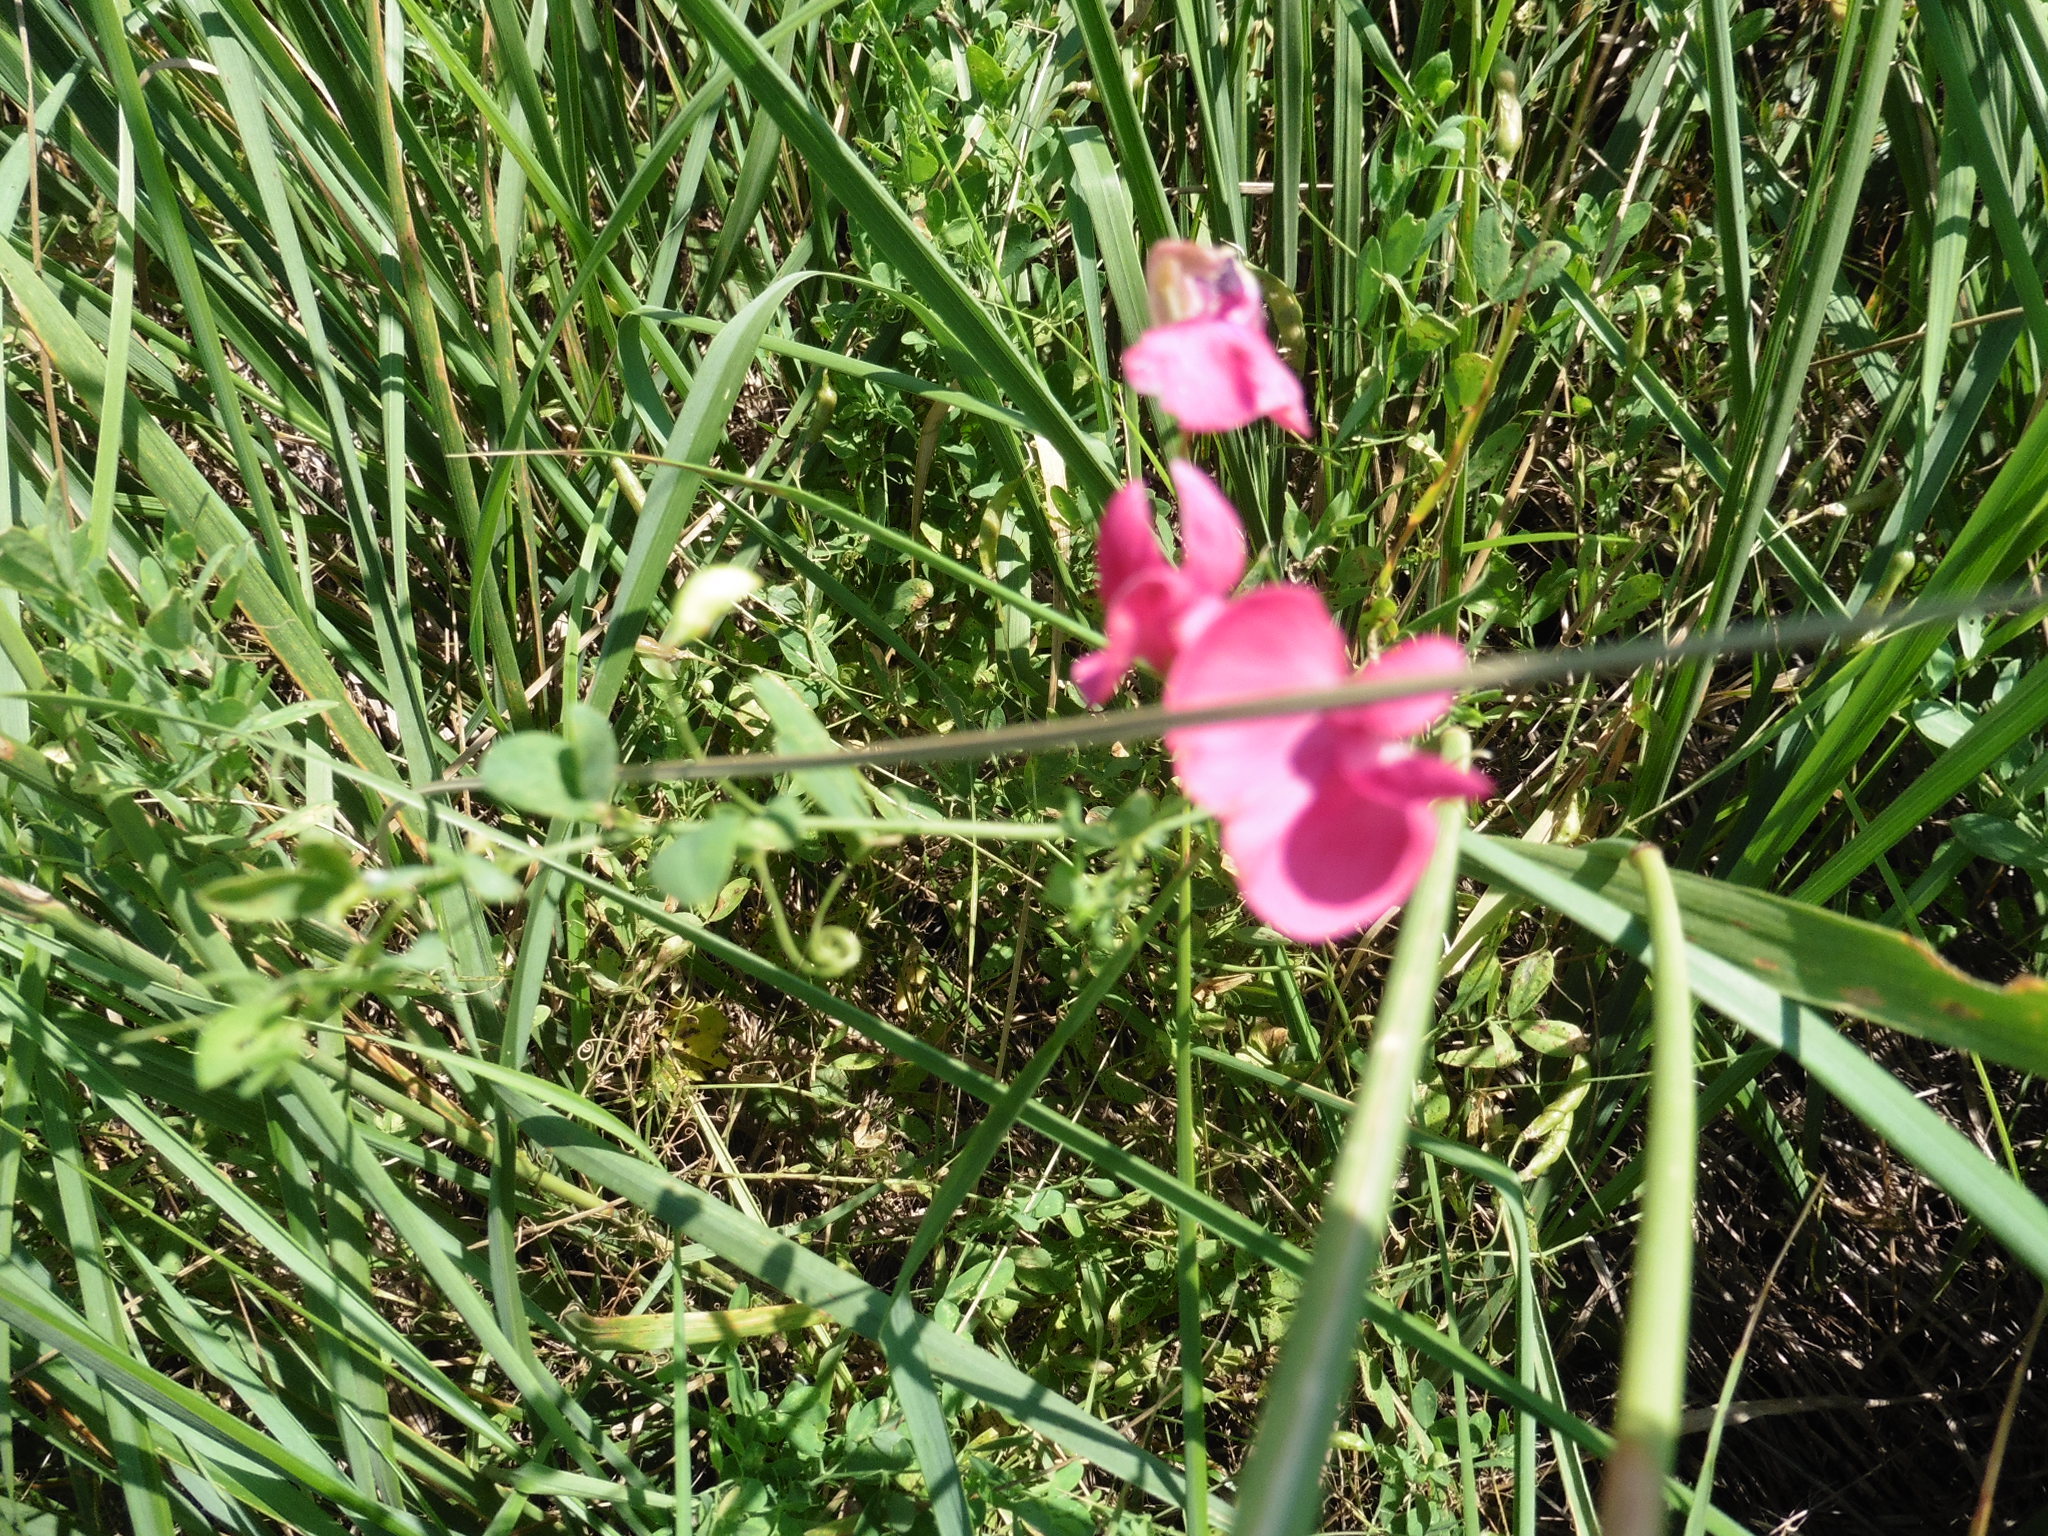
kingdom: Plantae
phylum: Tracheophyta
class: Magnoliopsida
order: Fabales
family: Fabaceae
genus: Lathyrus
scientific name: Lathyrus tuberosus
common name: Tuberous pea
